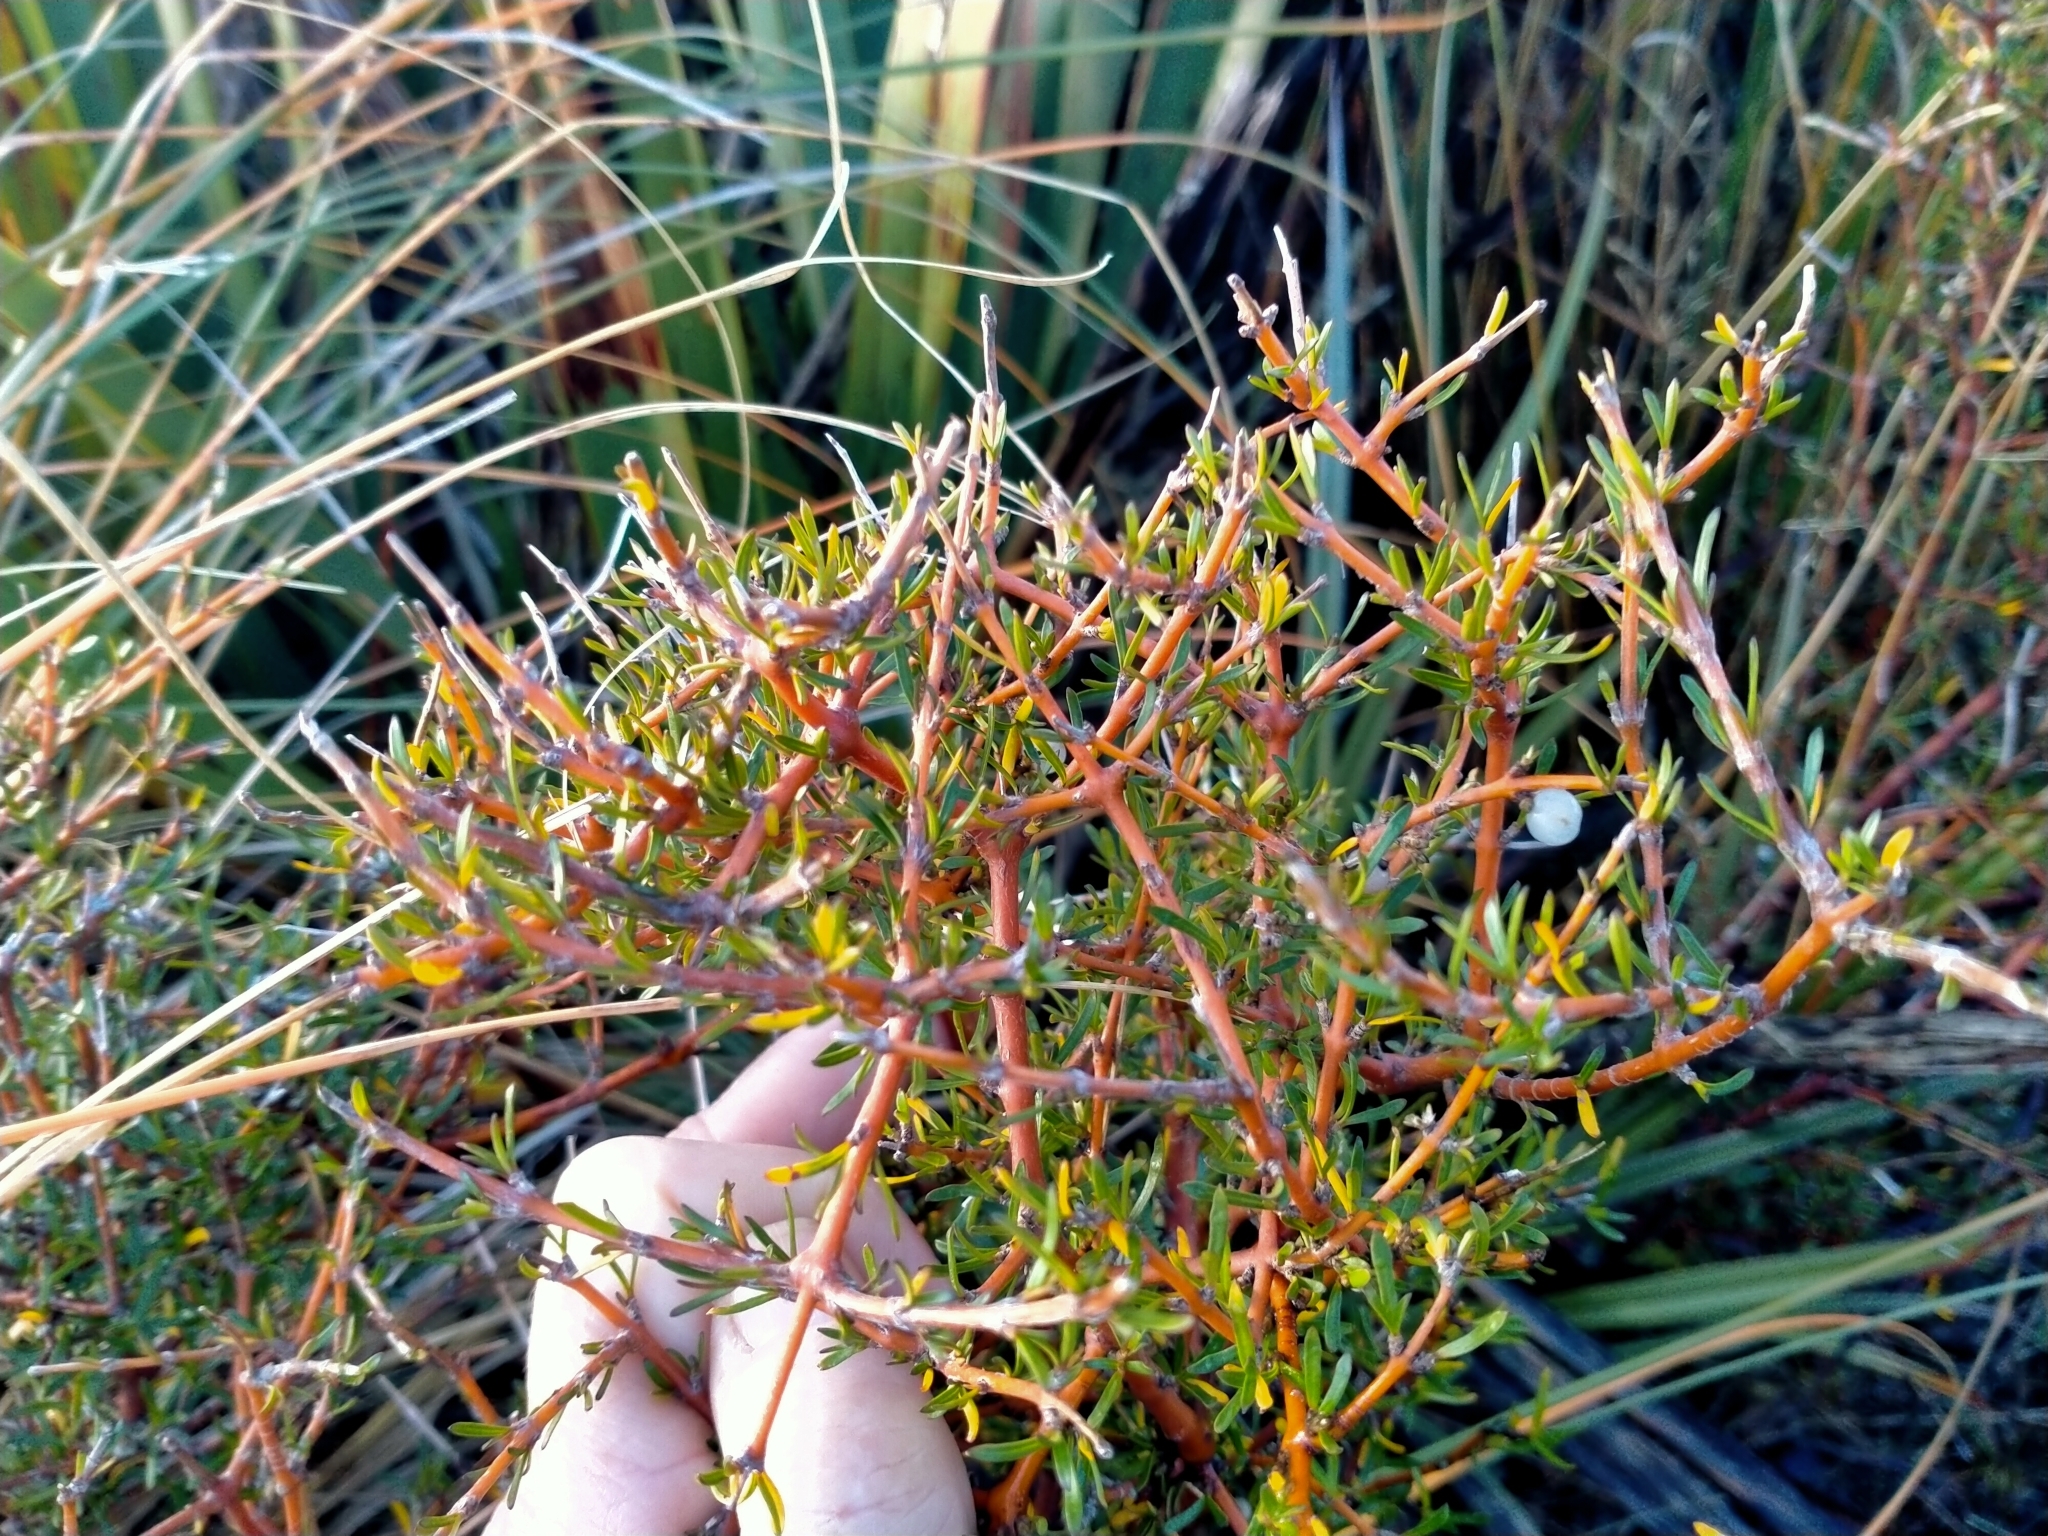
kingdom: Plantae
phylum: Tracheophyta
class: Magnoliopsida
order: Gentianales
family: Rubiaceae
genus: Coprosma
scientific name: Coprosma rugosa
